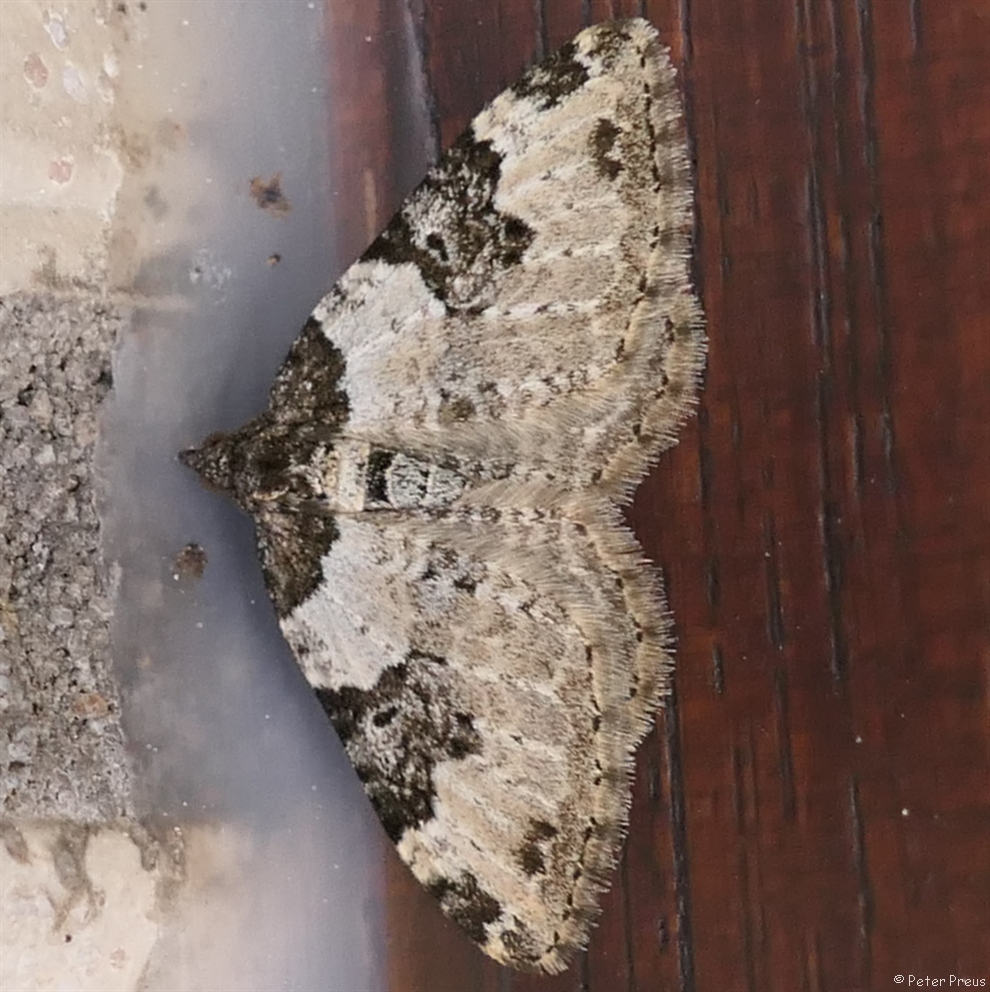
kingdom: Animalia
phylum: Arthropoda
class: Insecta
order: Lepidoptera
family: Geometridae
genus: Xanthorhoe
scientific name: Xanthorhoe fluctuata
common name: Garden carpet
